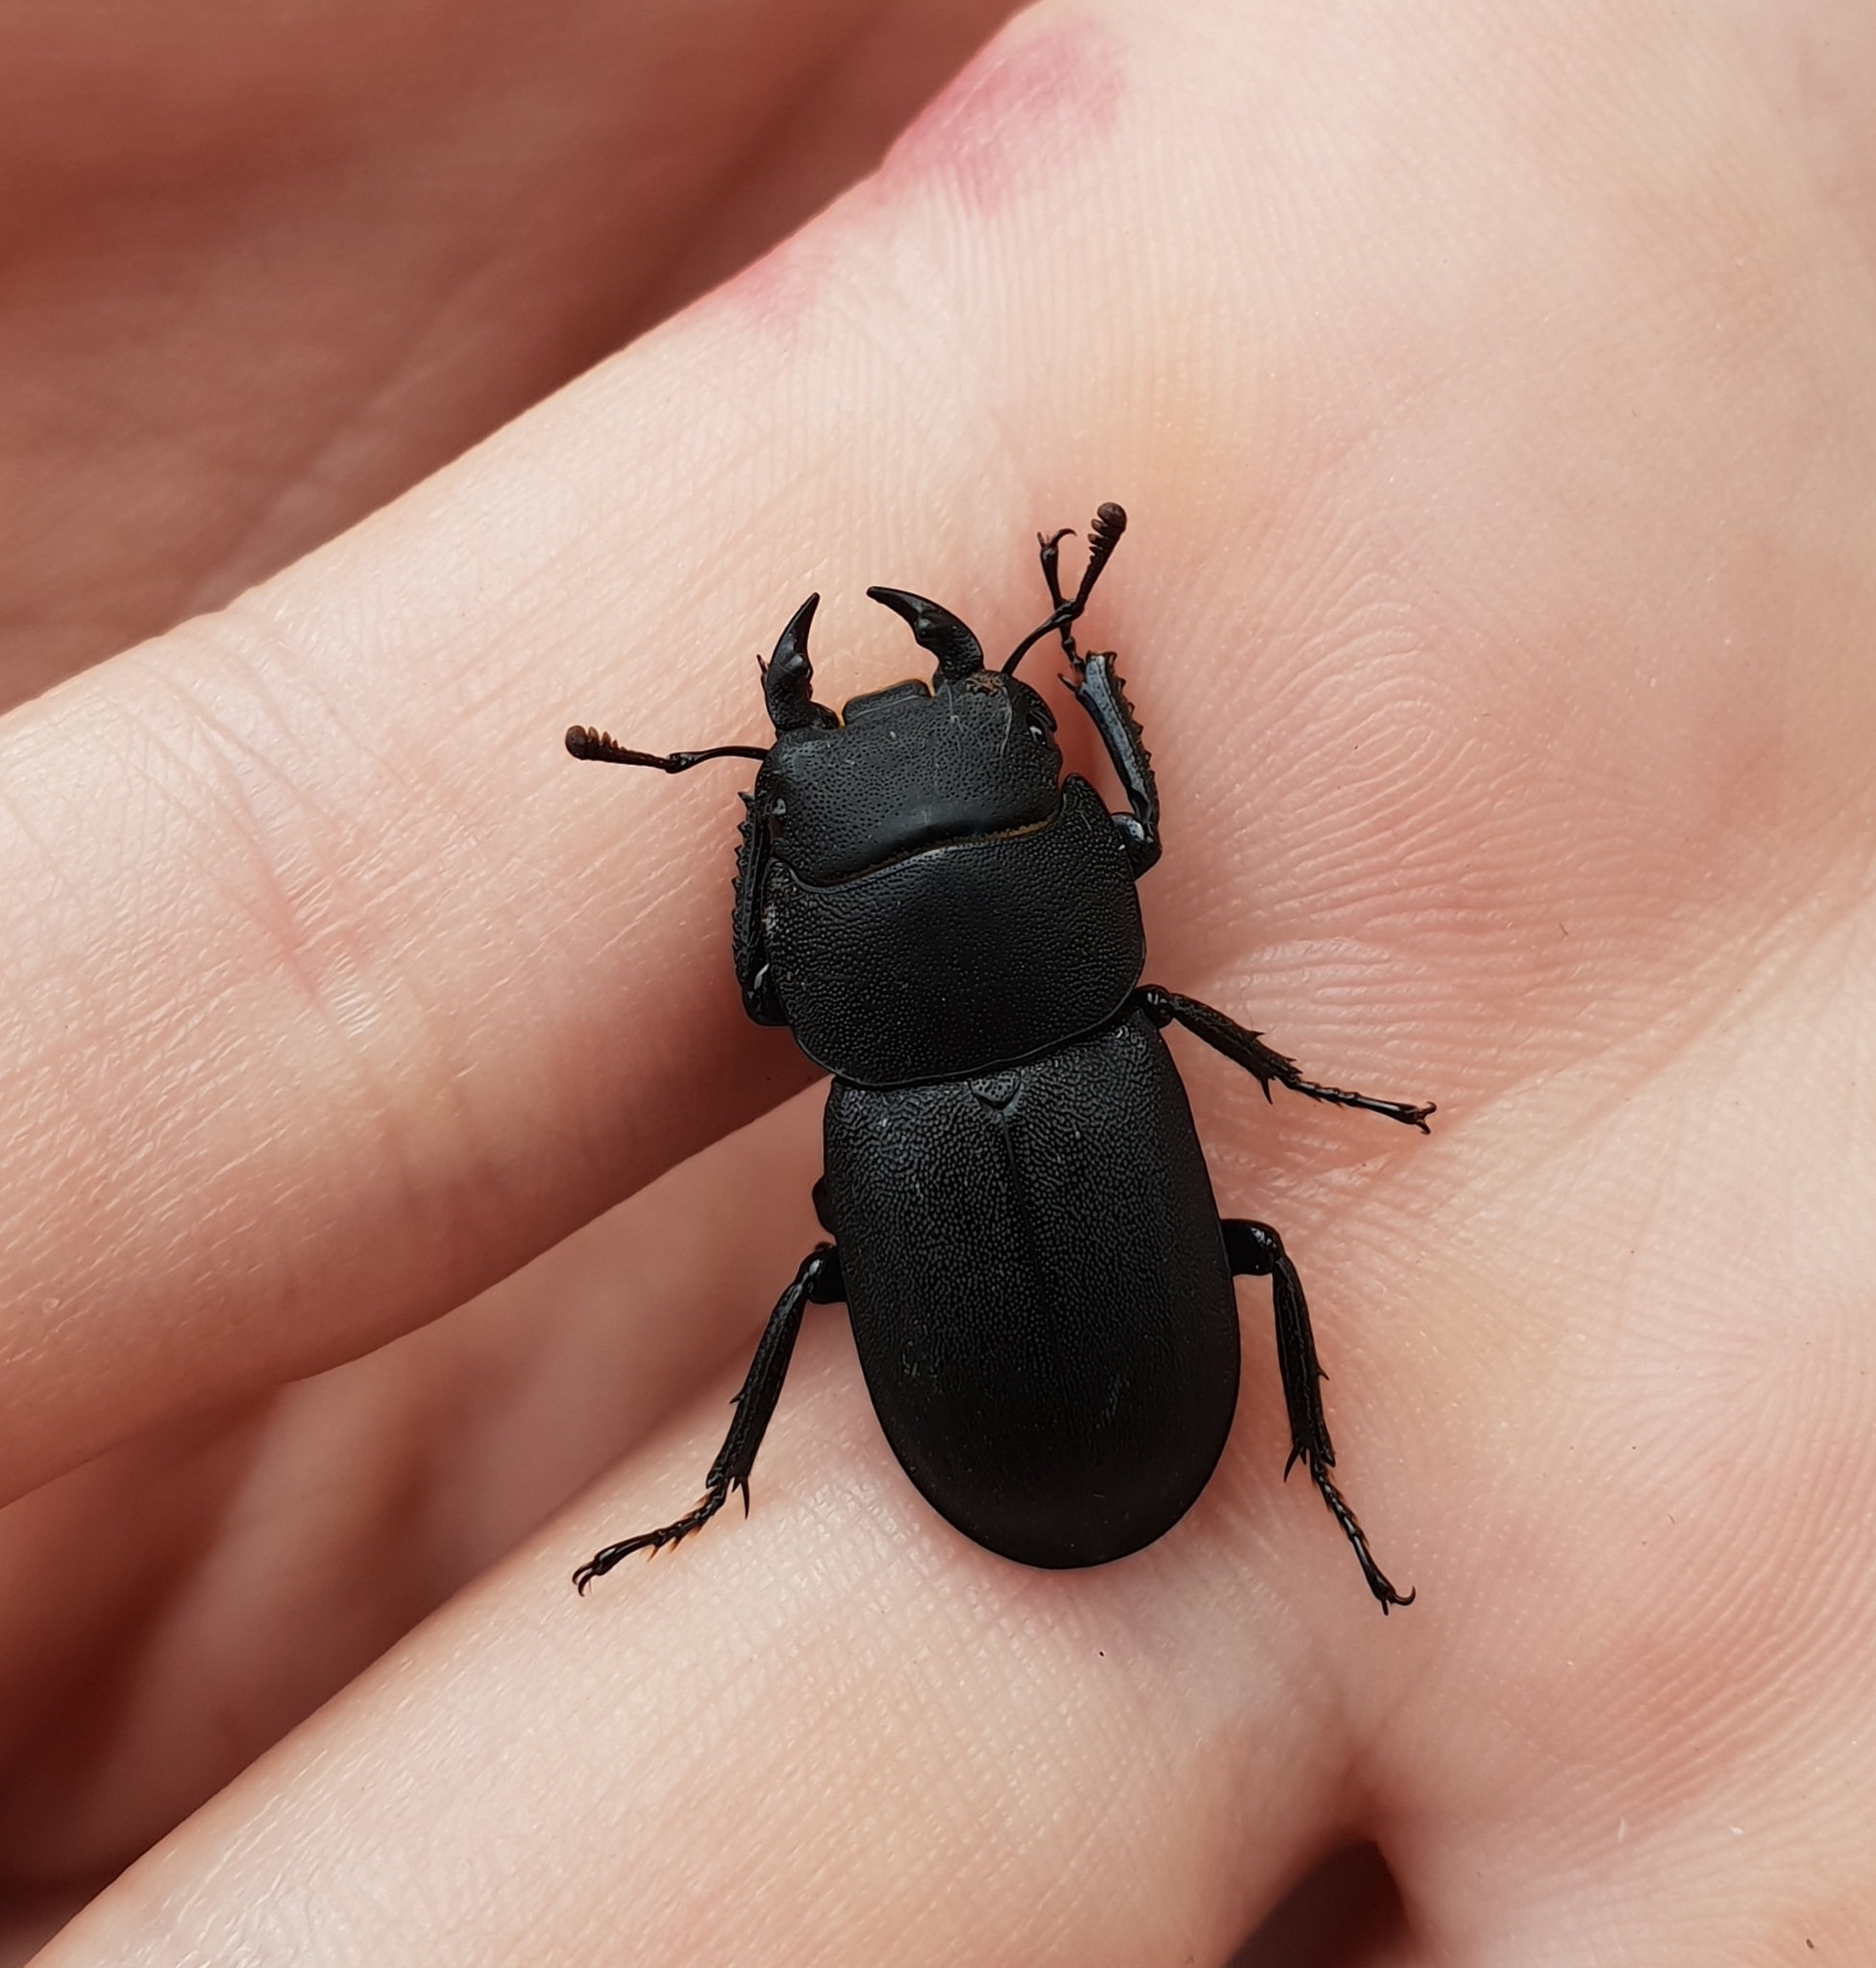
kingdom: Animalia
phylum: Arthropoda
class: Insecta
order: Coleoptera
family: Lucanidae
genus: Dorcus
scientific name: Dorcus parallelipipedus
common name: Lesser stag beetle
